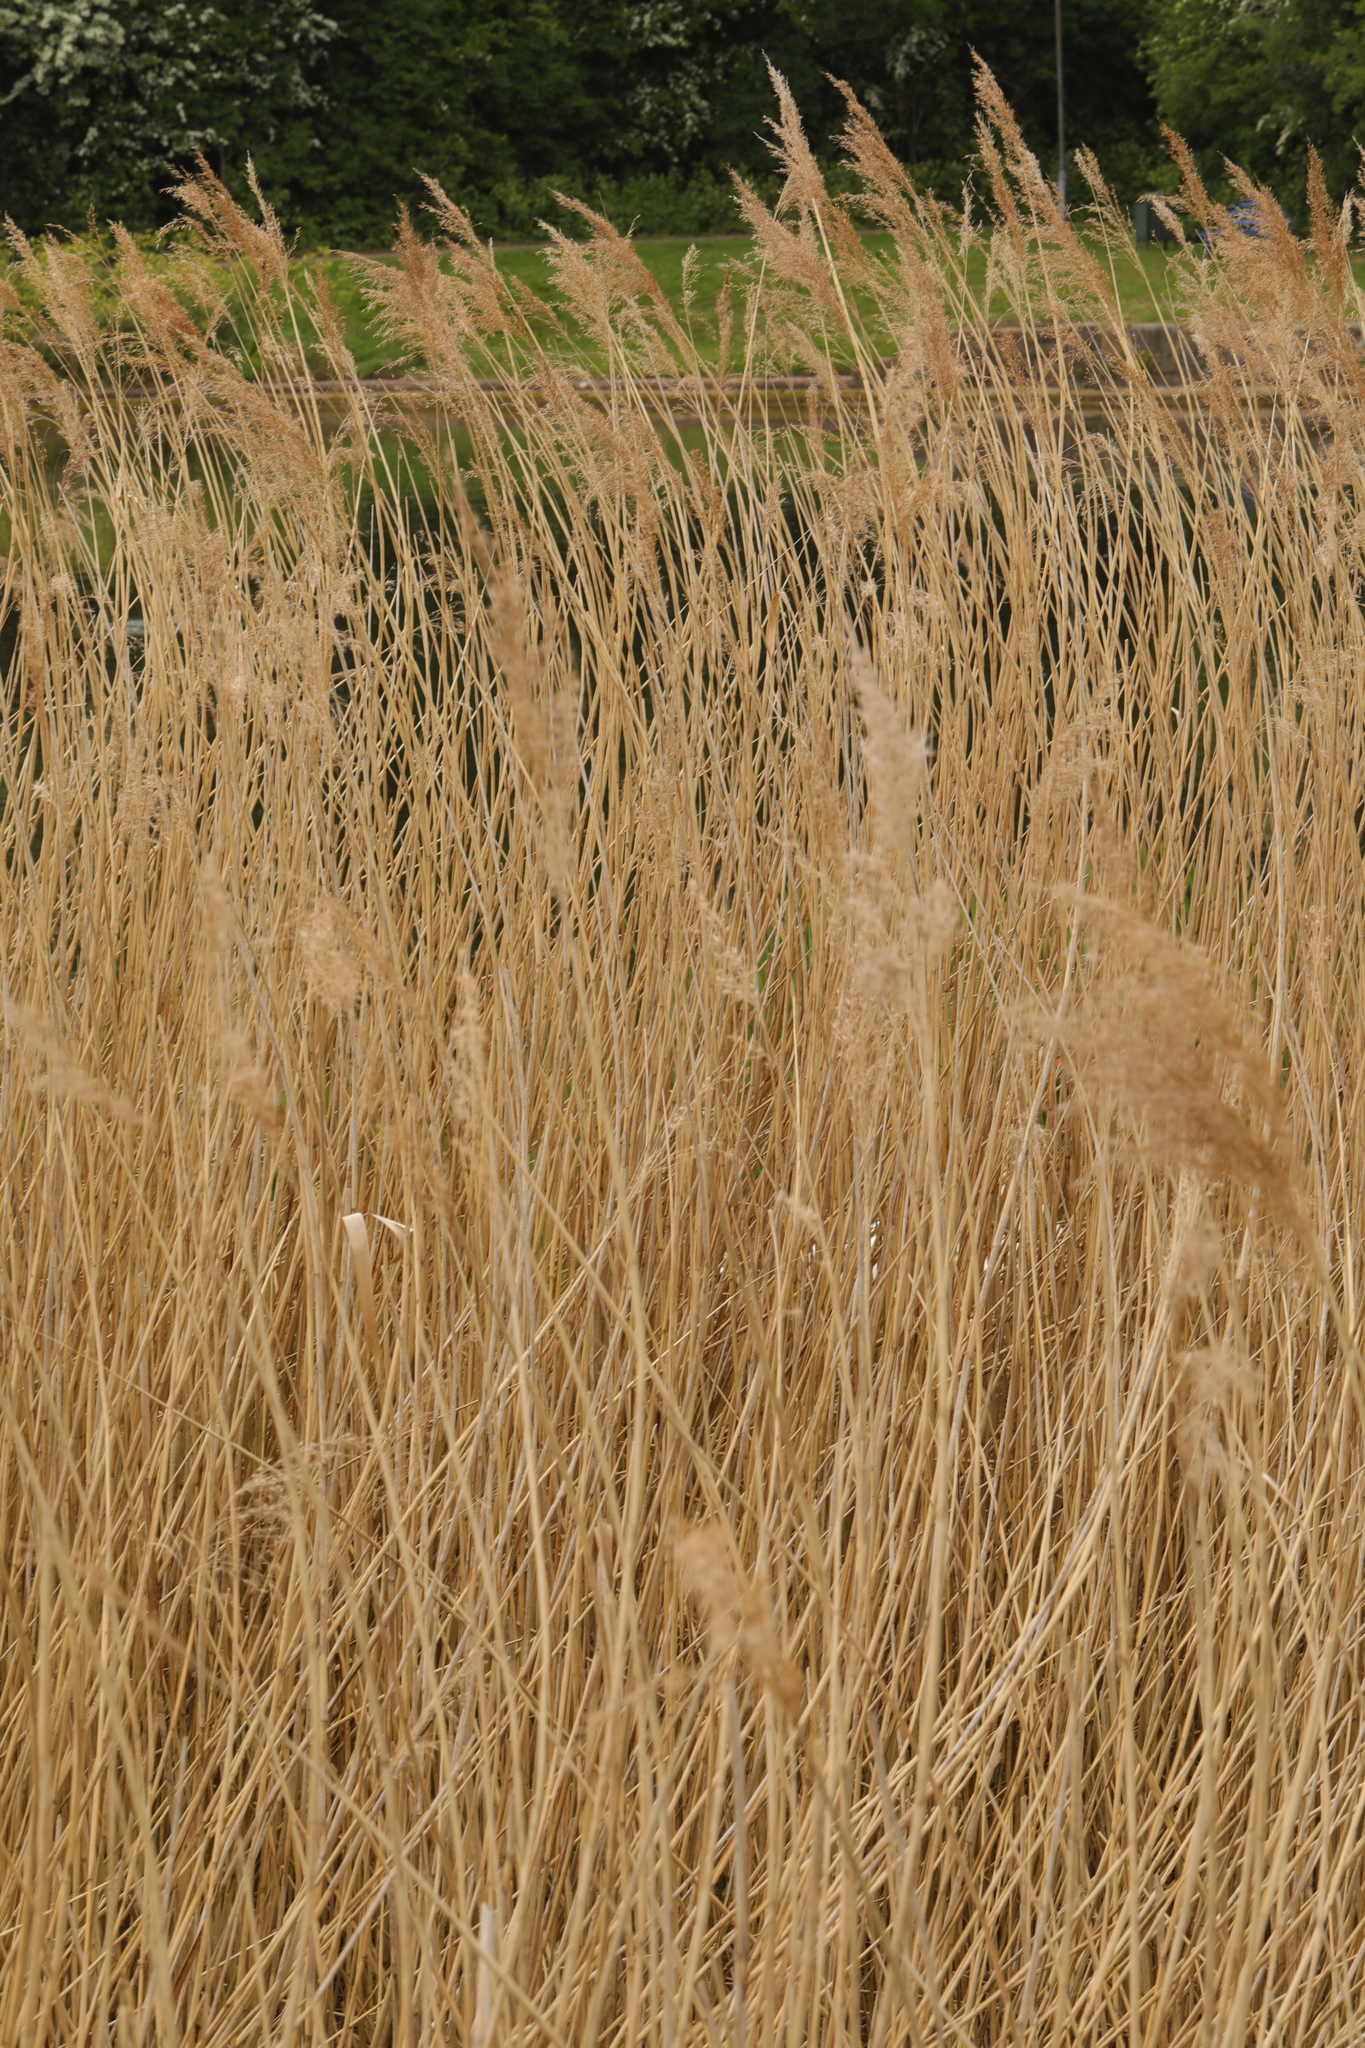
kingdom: Plantae
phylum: Tracheophyta
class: Liliopsida
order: Poales
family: Poaceae
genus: Phragmites
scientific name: Phragmites australis
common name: Common reed
